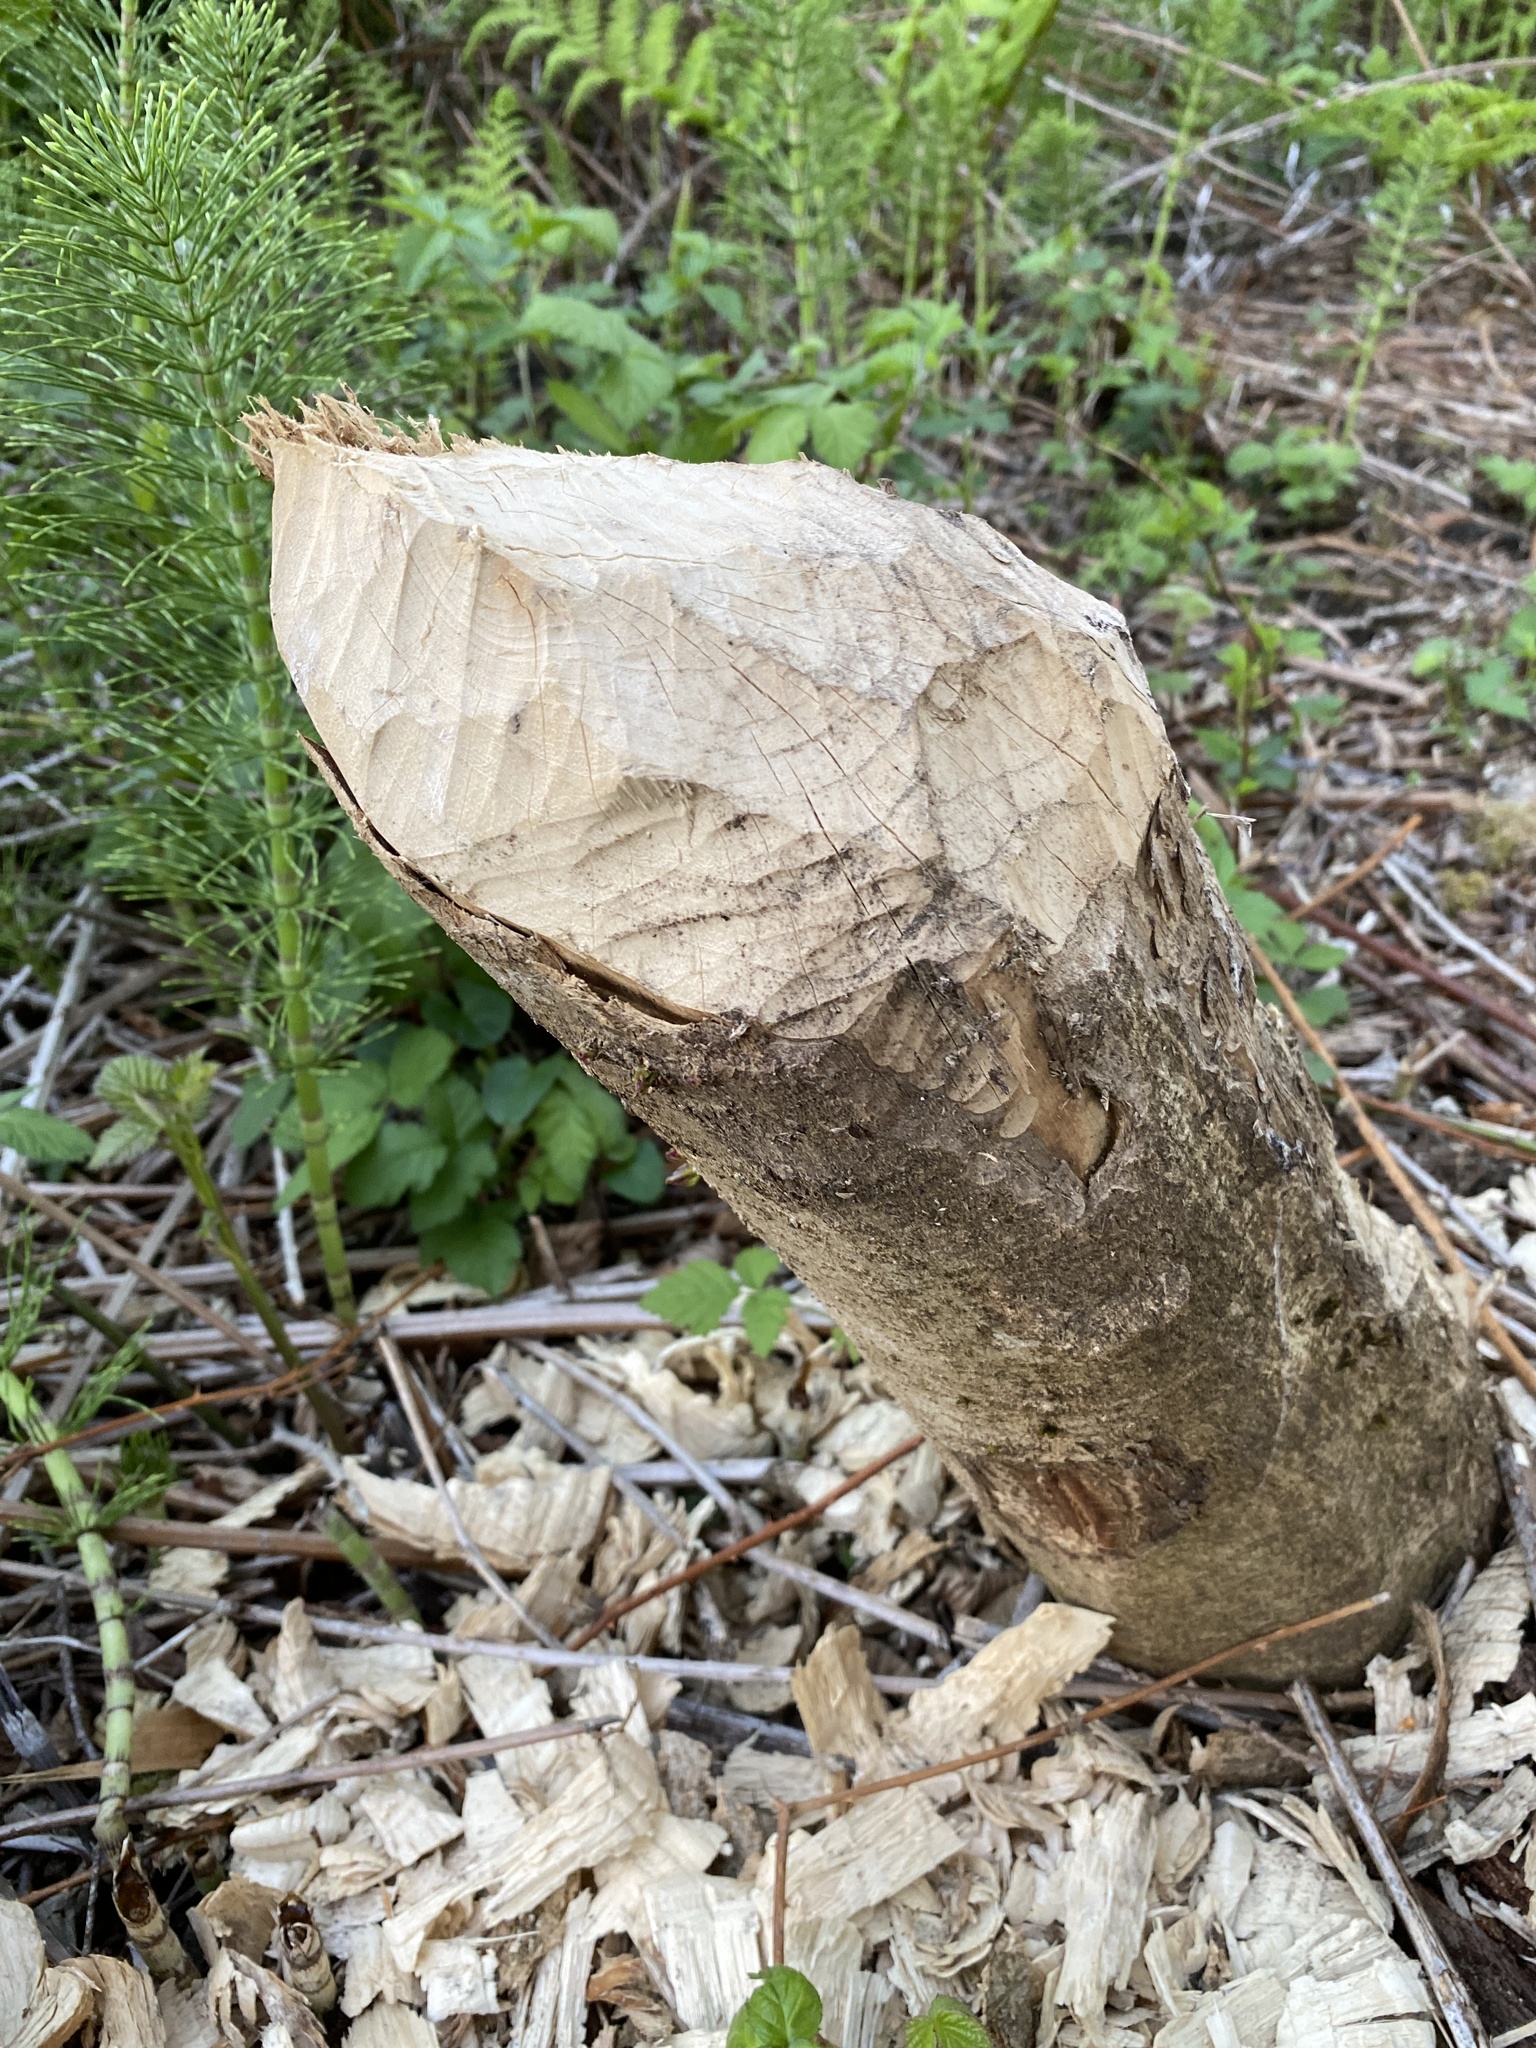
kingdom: Animalia
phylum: Chordata
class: Mammalia
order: Rodentia
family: Castoridae
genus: Castor
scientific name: Castor canadensis
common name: American beaver
